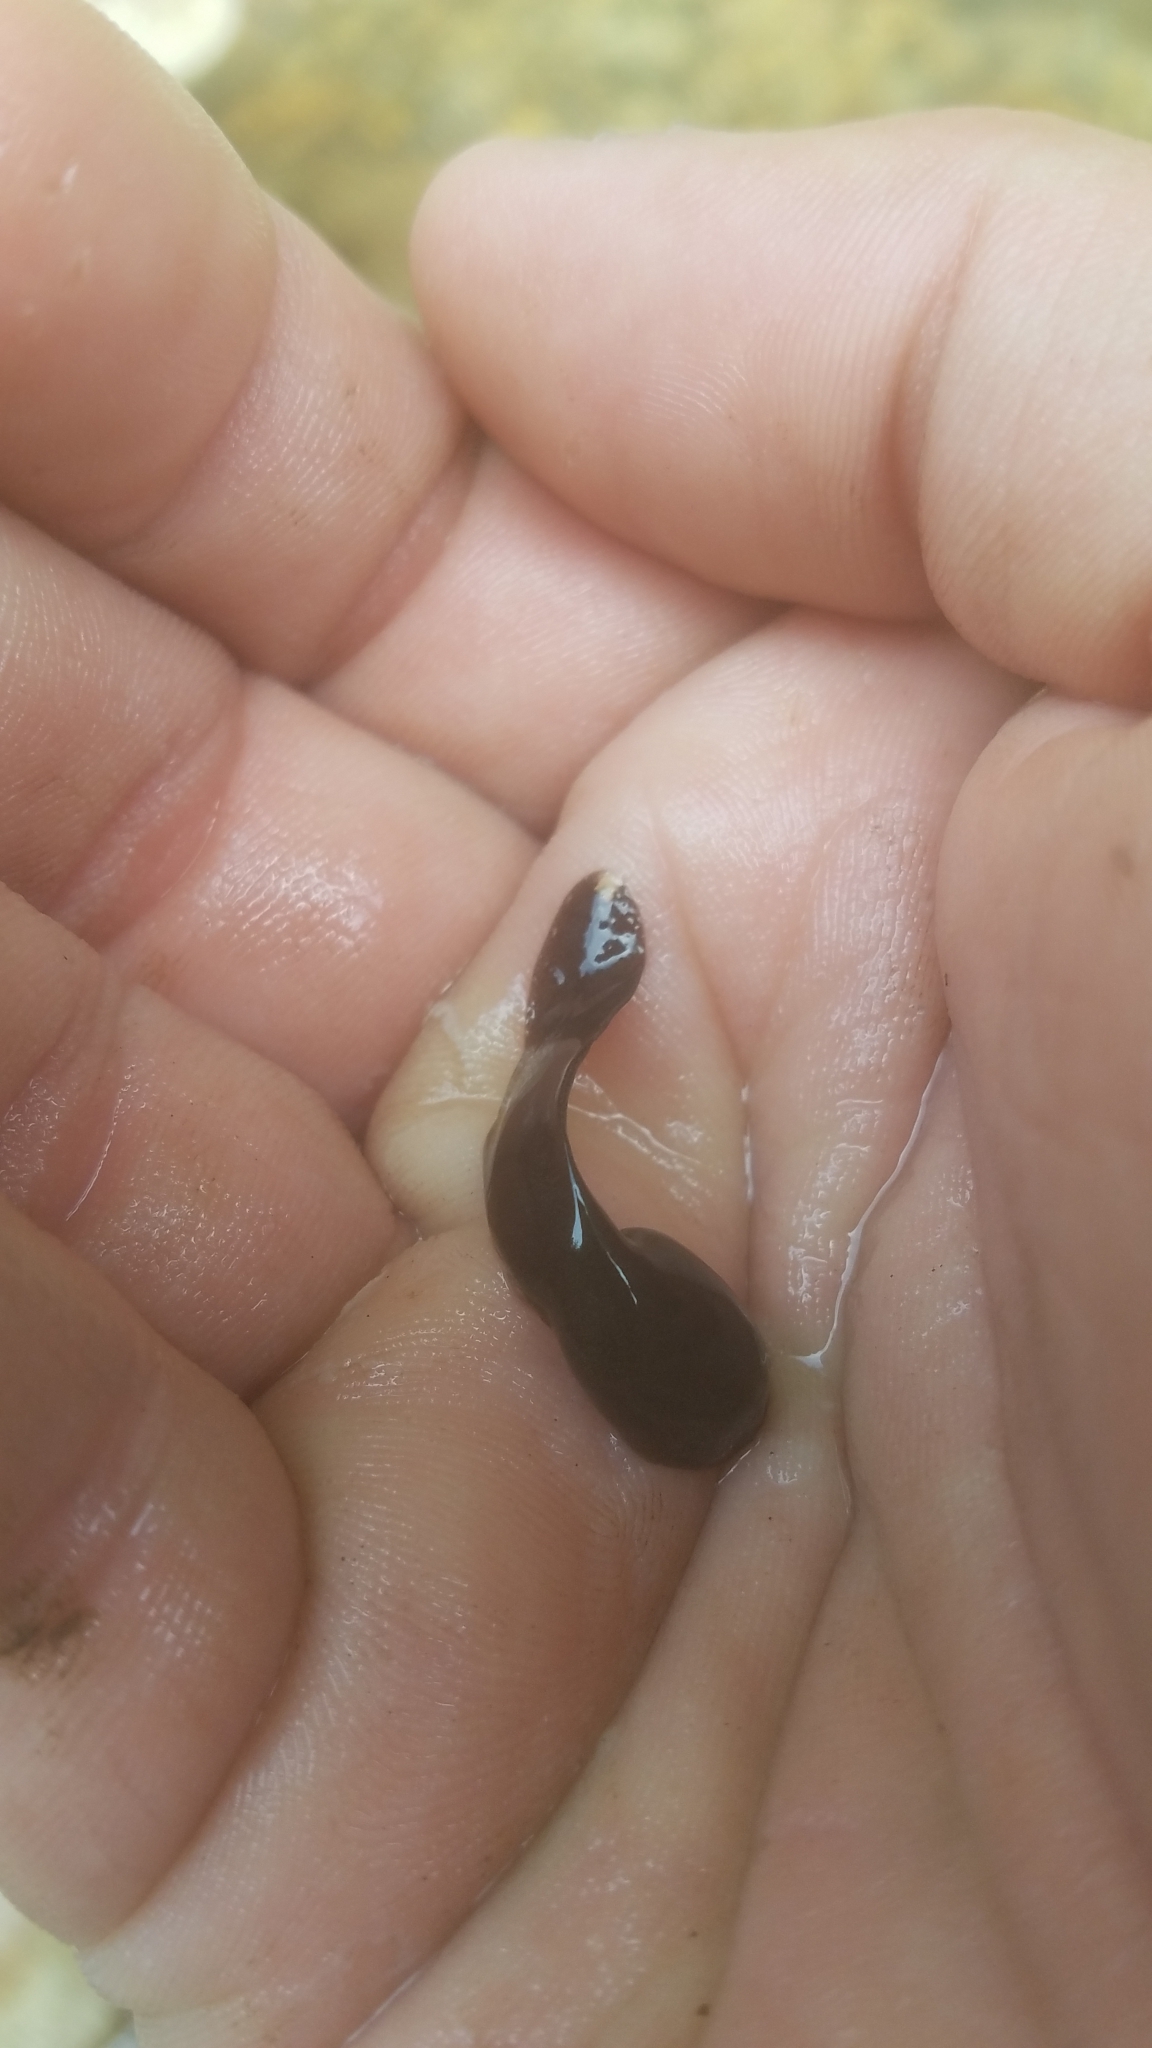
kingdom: Animalia
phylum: Chordata
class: Amphibia
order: Anura
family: Ascaphidae
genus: Ascaphus
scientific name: Ascaphus truei
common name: Tailed frog
